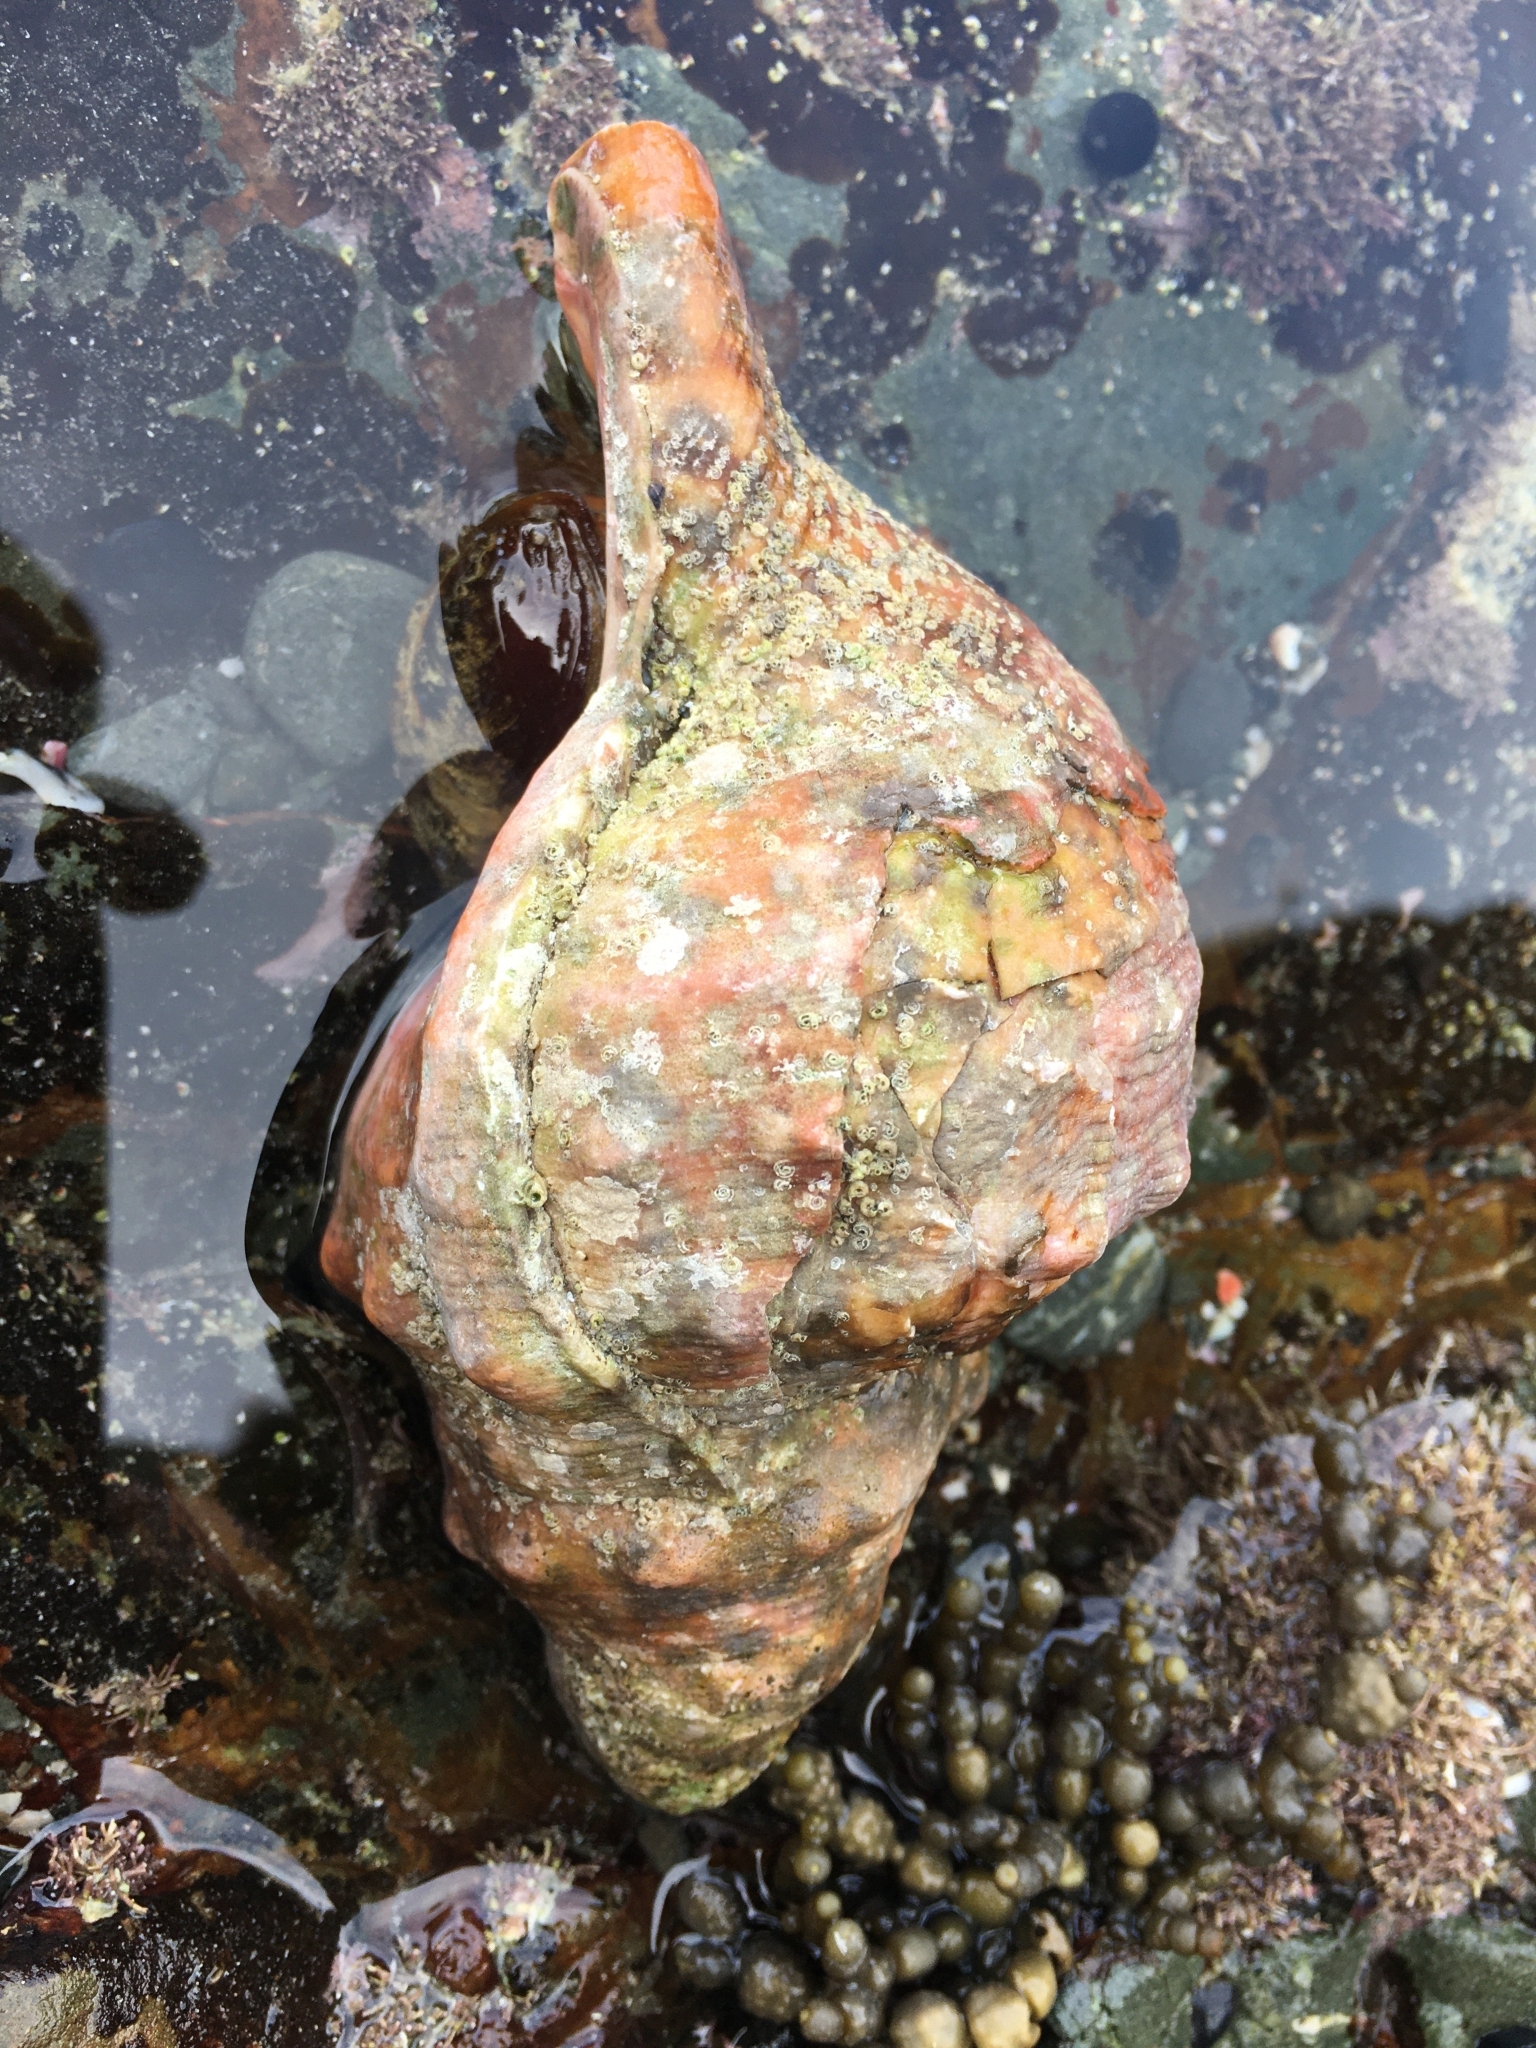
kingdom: Animalia
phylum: Mollusca
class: Gastropoda
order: Littorinimorpha
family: Charoniidae
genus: Charonia
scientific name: Charonia lampas
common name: Knobbed triton
